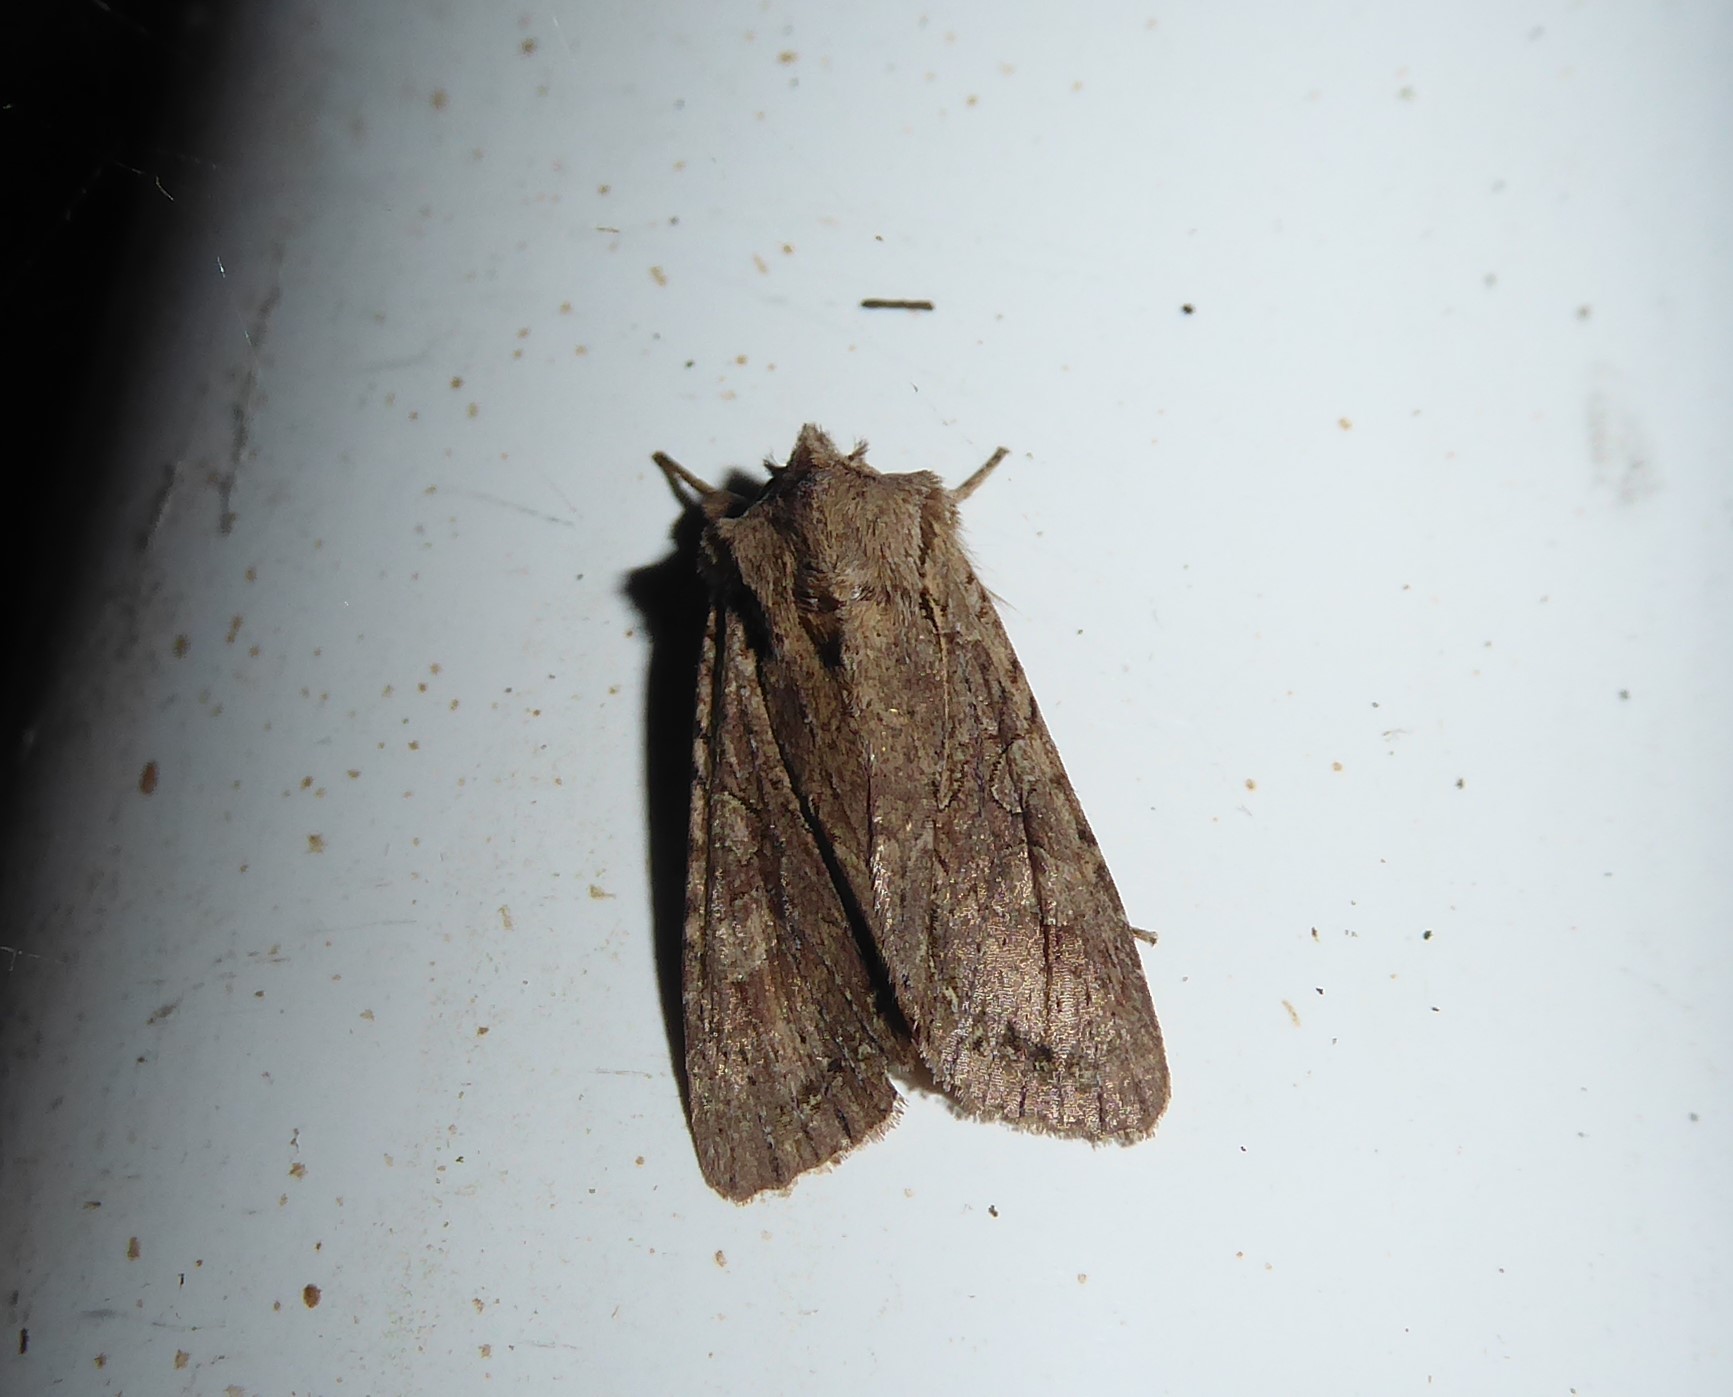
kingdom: Animalia
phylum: Arthropoda
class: Insecta
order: Lepidoptera
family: Noctuidae
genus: Ichneutica
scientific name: Ichneutica
